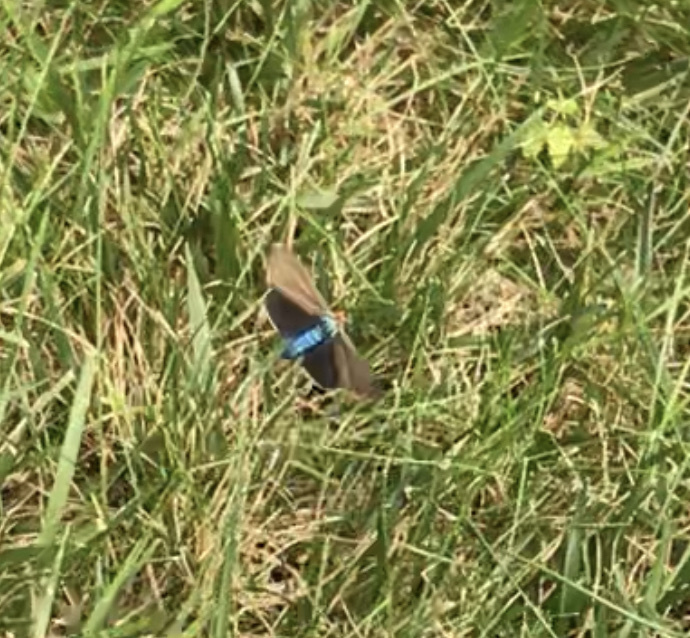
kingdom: Animalia
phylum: Arthropoda
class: Insecta
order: Lepidoptera
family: Erebidae
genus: Ctenucha
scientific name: Ctenucha virginica
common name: Virginia ctenucha moth
